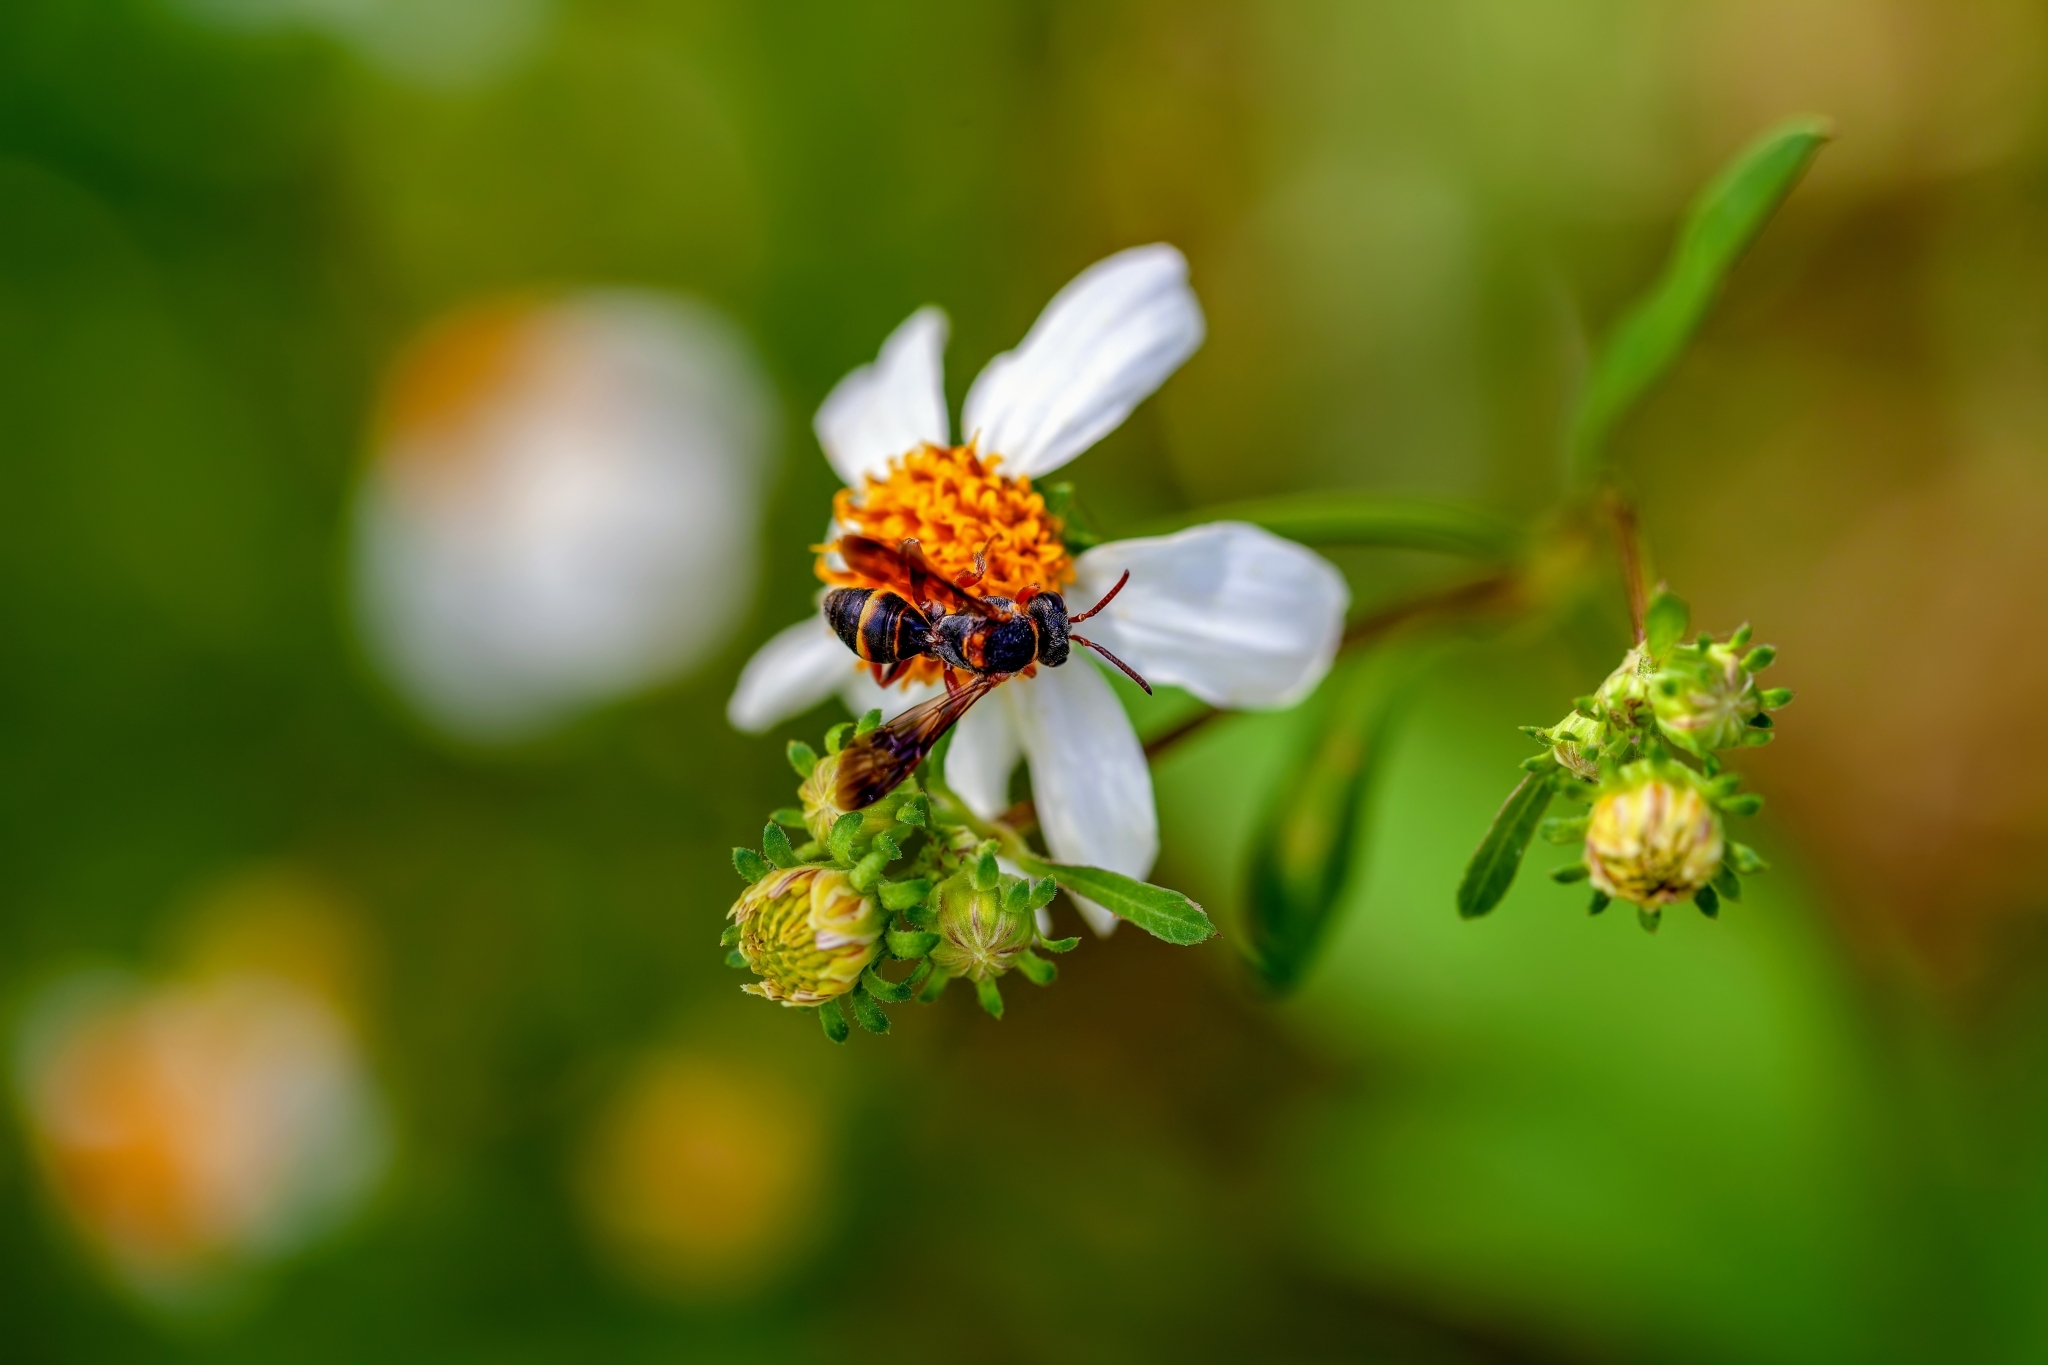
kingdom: Animalia
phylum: Arthropoda
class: Insecta
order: Hymenoptera
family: Apidae
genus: Nomada
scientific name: Nomada fervida
